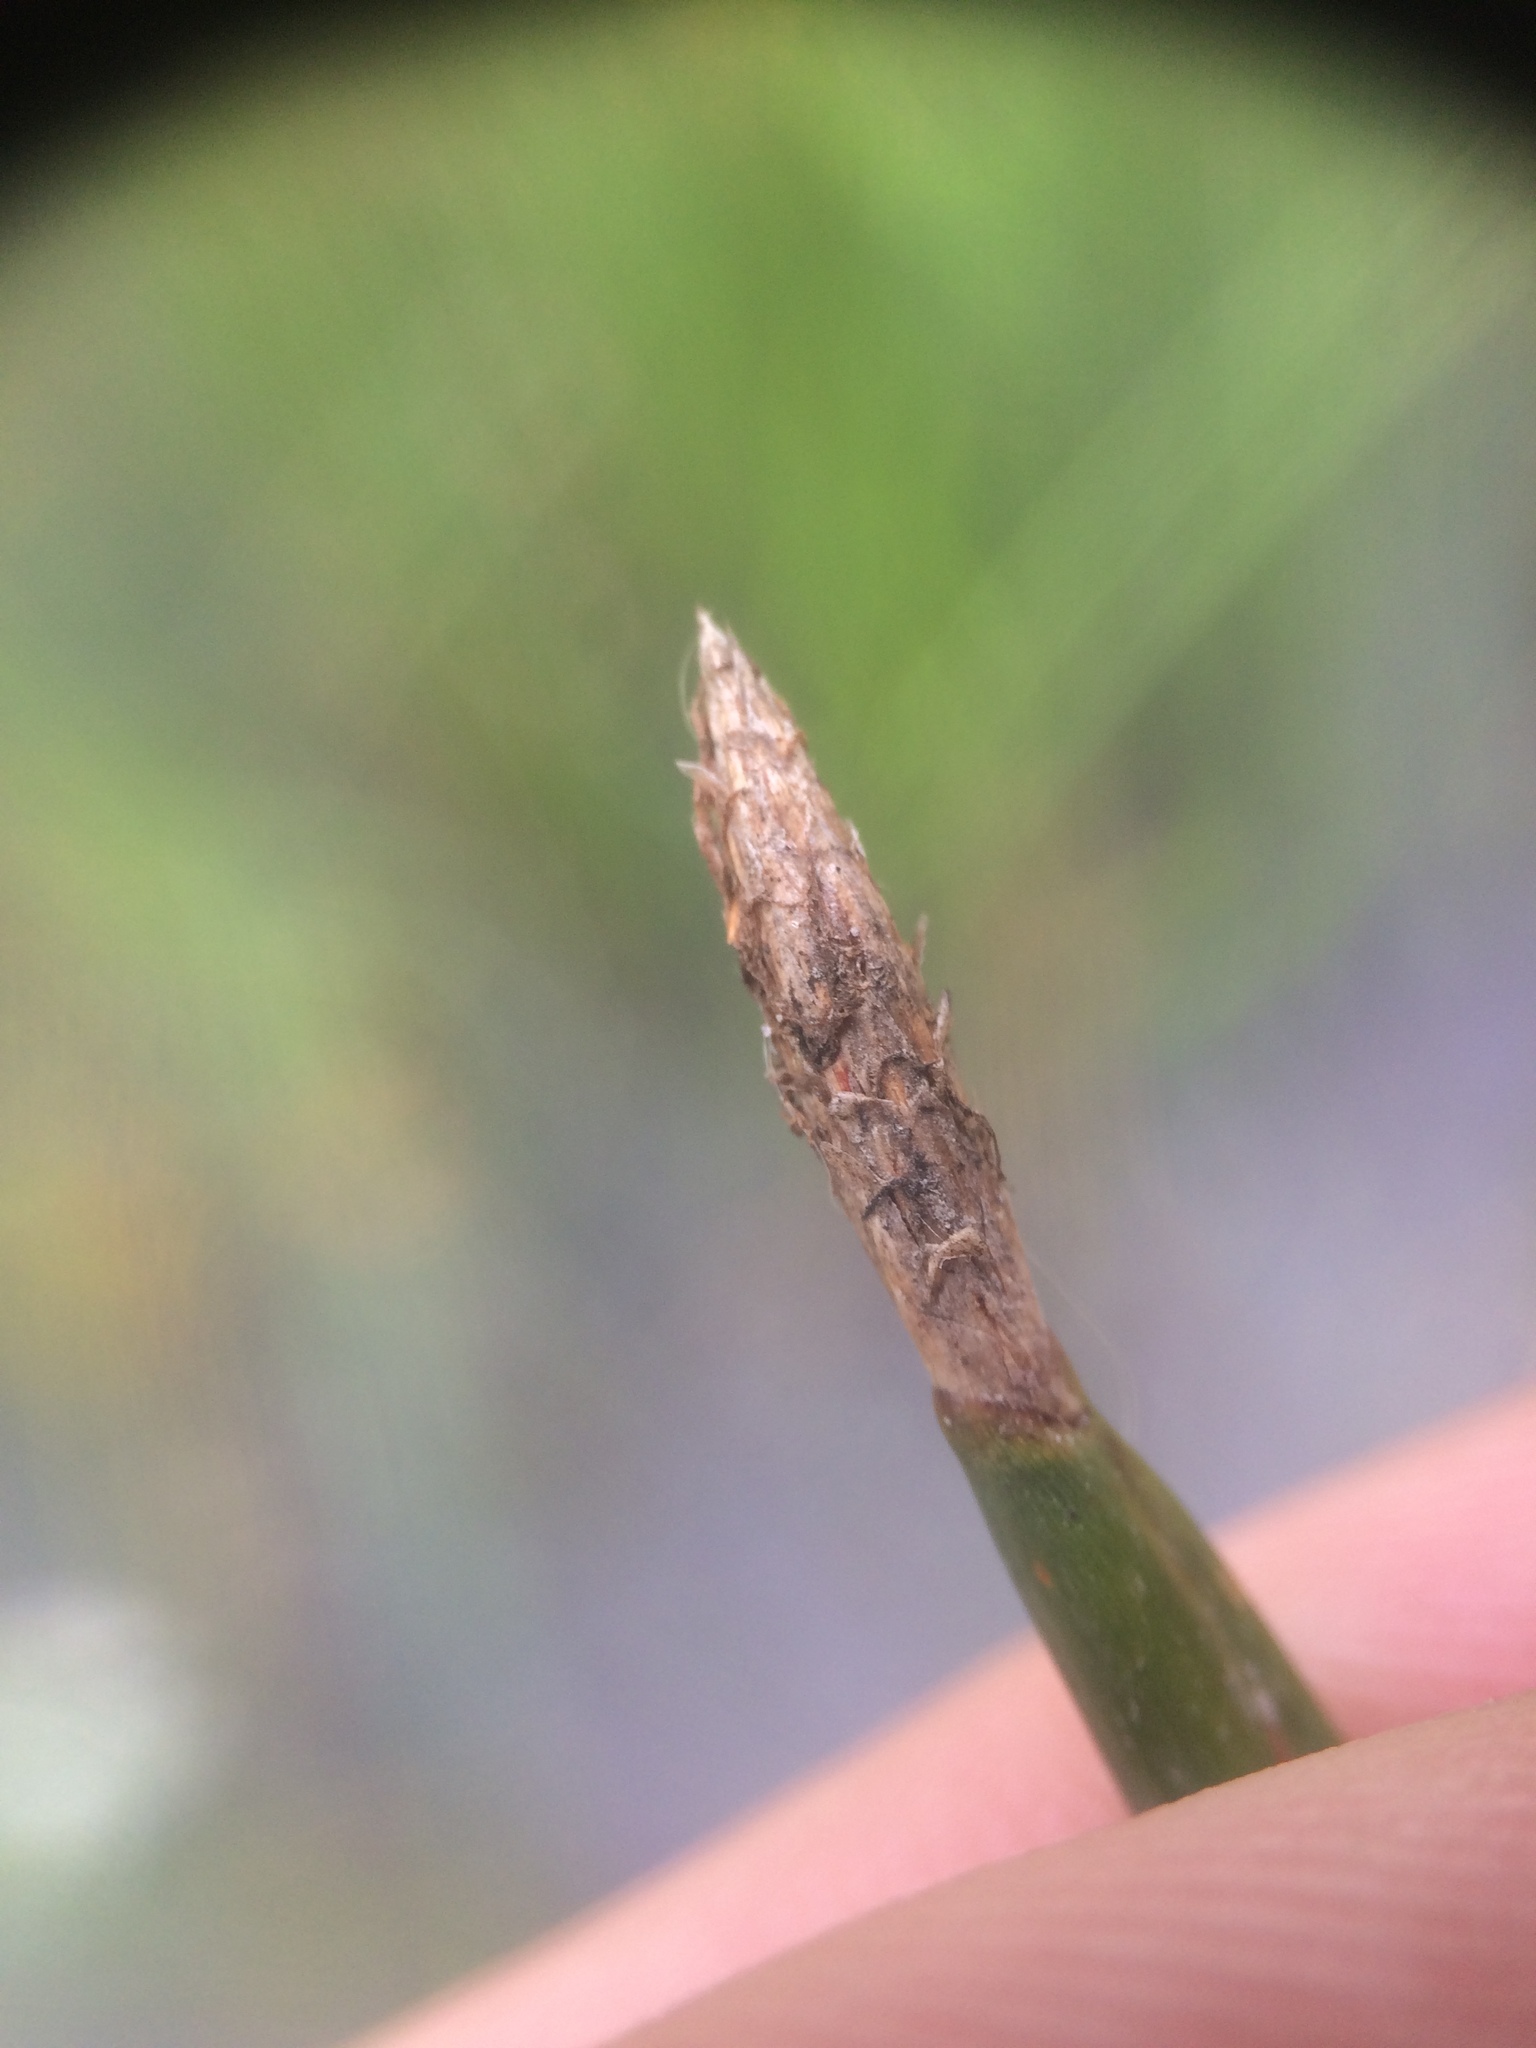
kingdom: Plantae
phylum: Tracheophyta
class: Liliopsida
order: Poales
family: Cyperaceae
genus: Eleocharis
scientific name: Eleocharis palustris
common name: Common spike-rush
